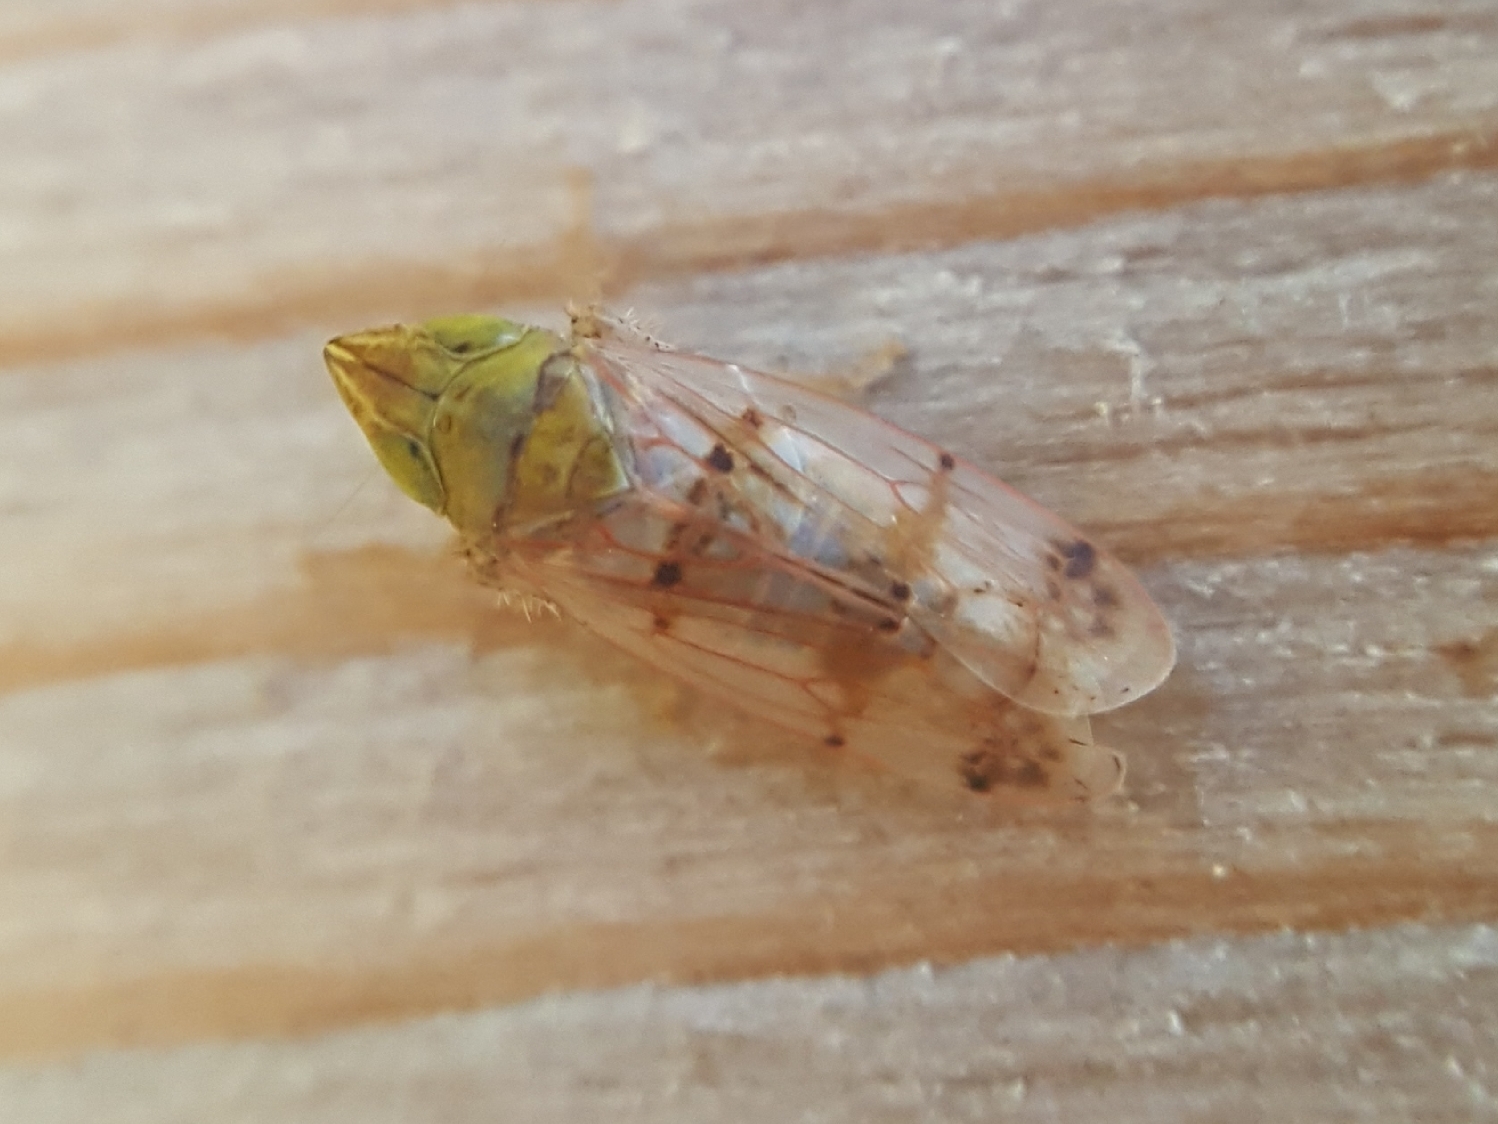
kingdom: Animalia
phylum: Arthropoda
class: Insecta
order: Hemiptera
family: Cicadellidae
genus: Japananus
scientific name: Japananus hyalinus
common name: The japanese maple leafhopper
